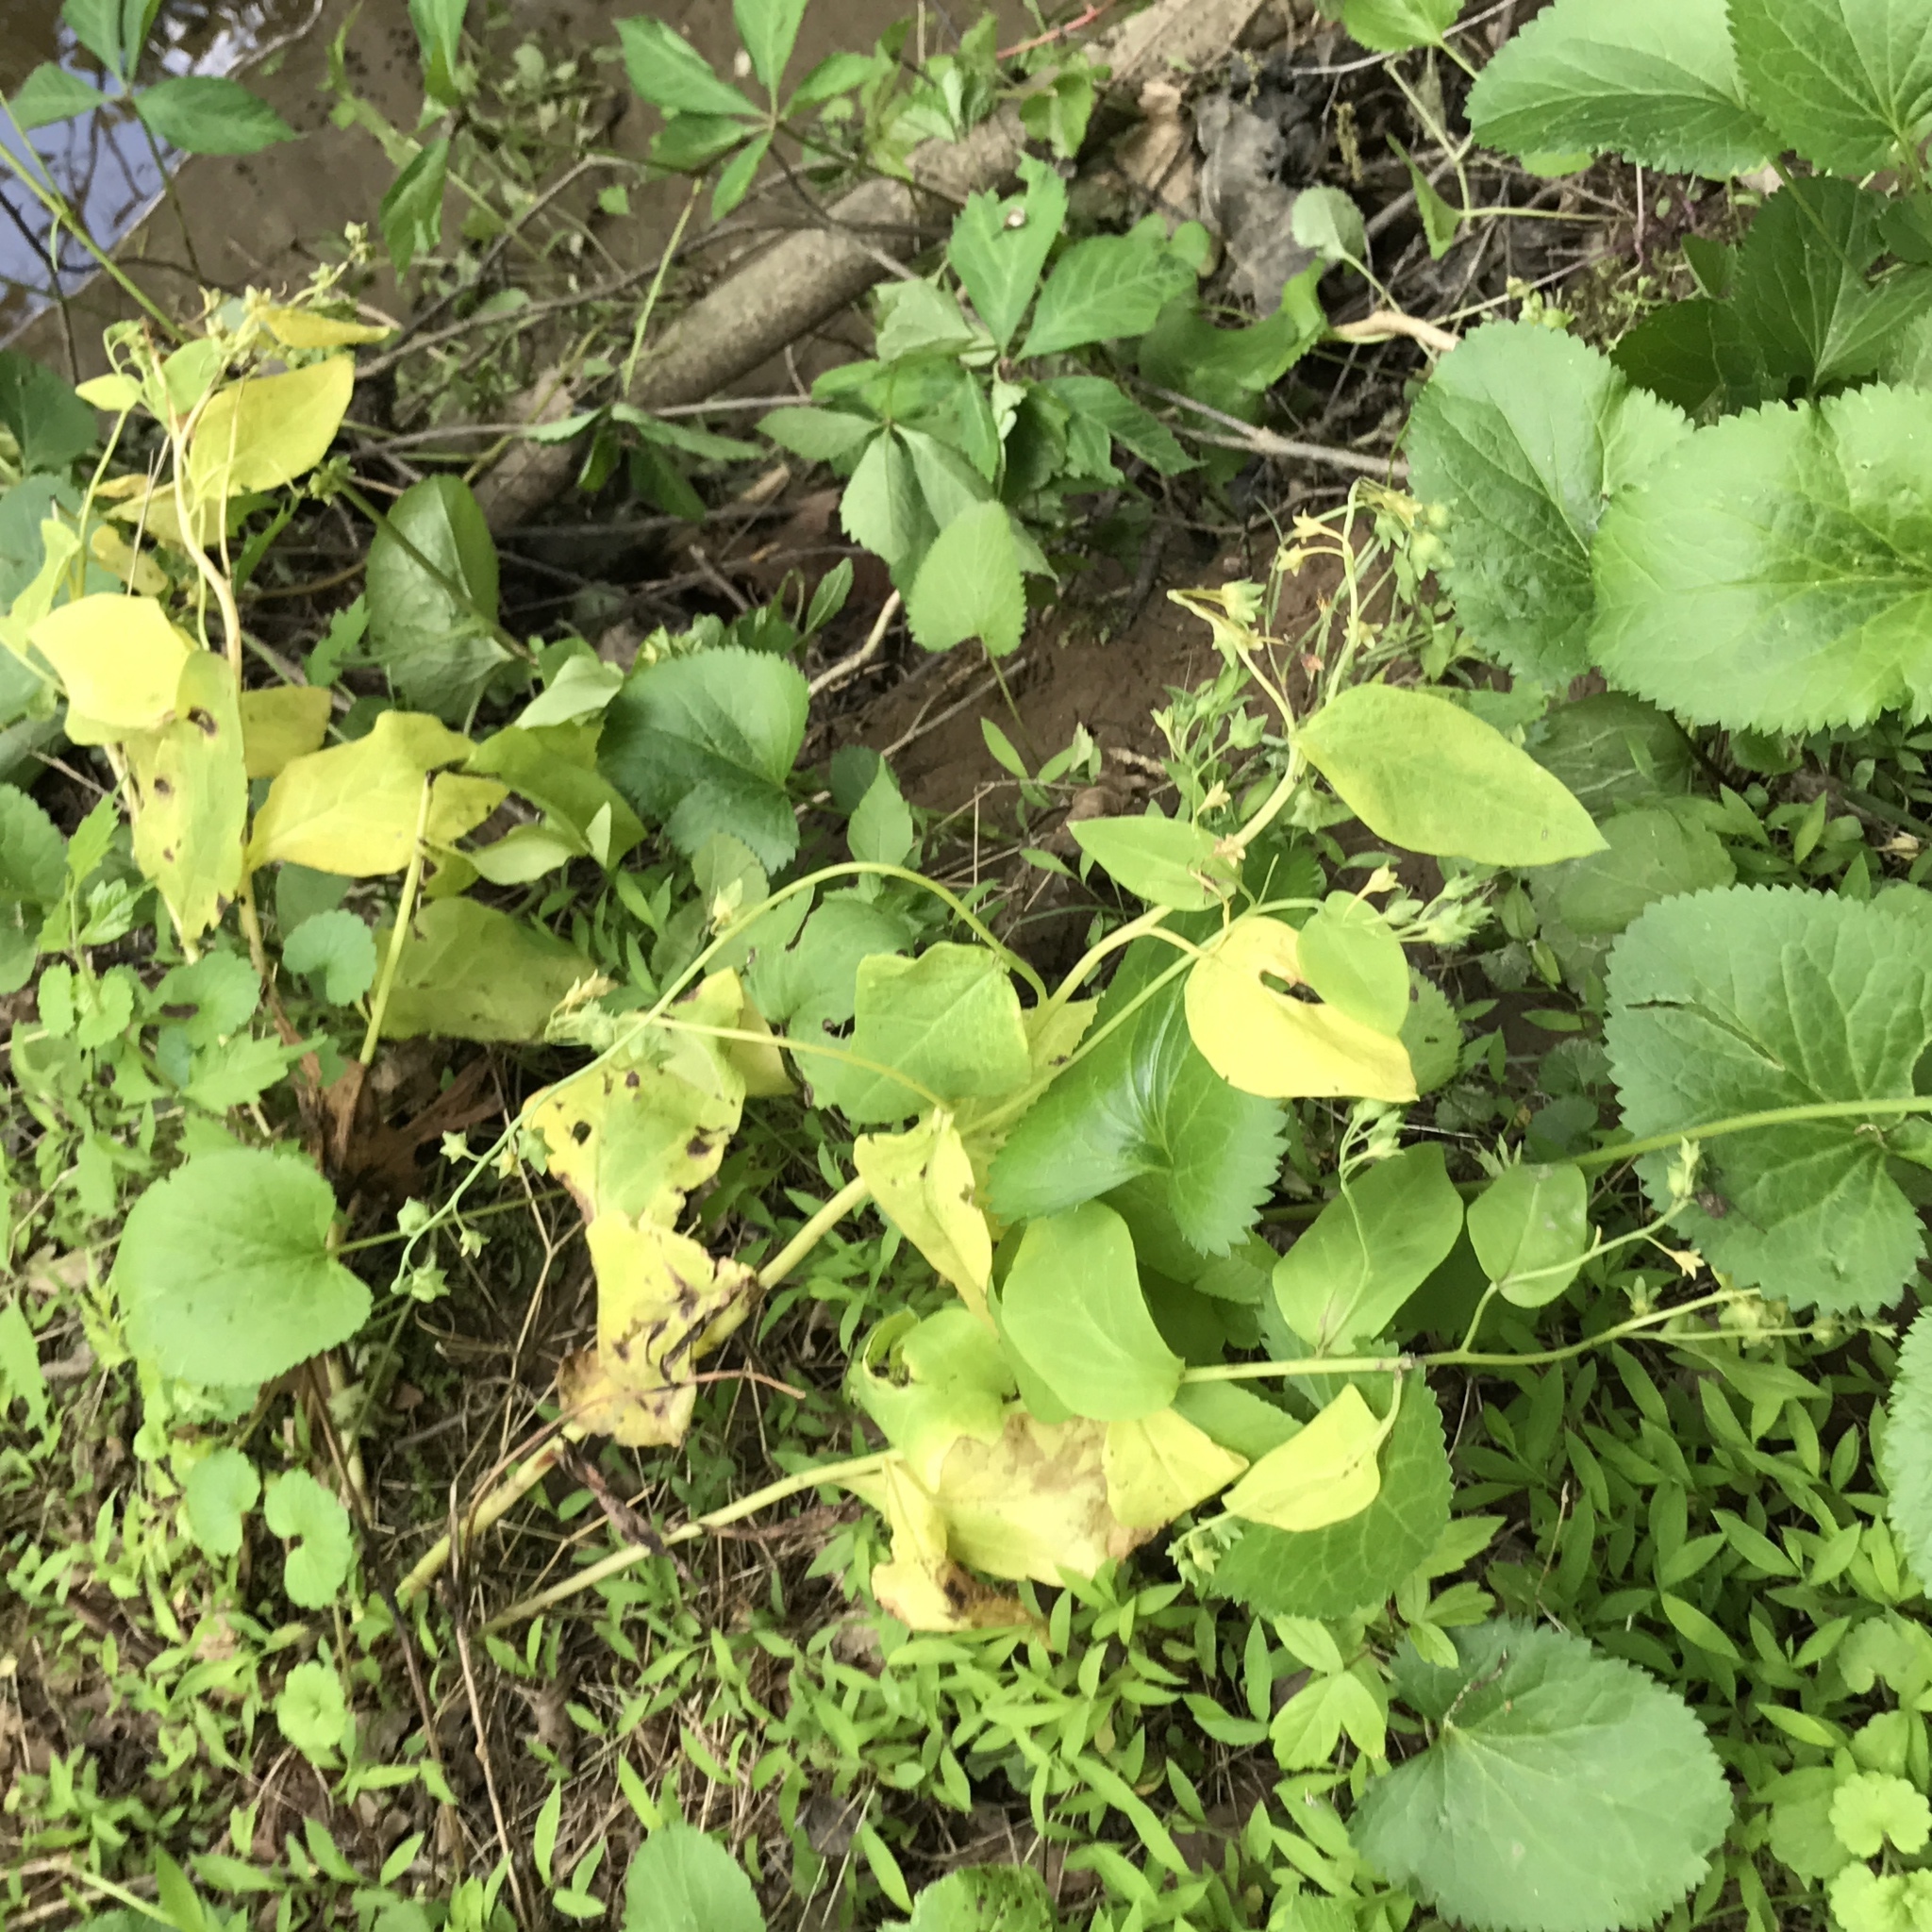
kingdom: Plantae
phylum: Tracheophyta
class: Magnoliopsida
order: Boraginales
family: Boraginaceae
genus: Mertensia
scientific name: Mertensia virginica
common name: Virginia bluebells
